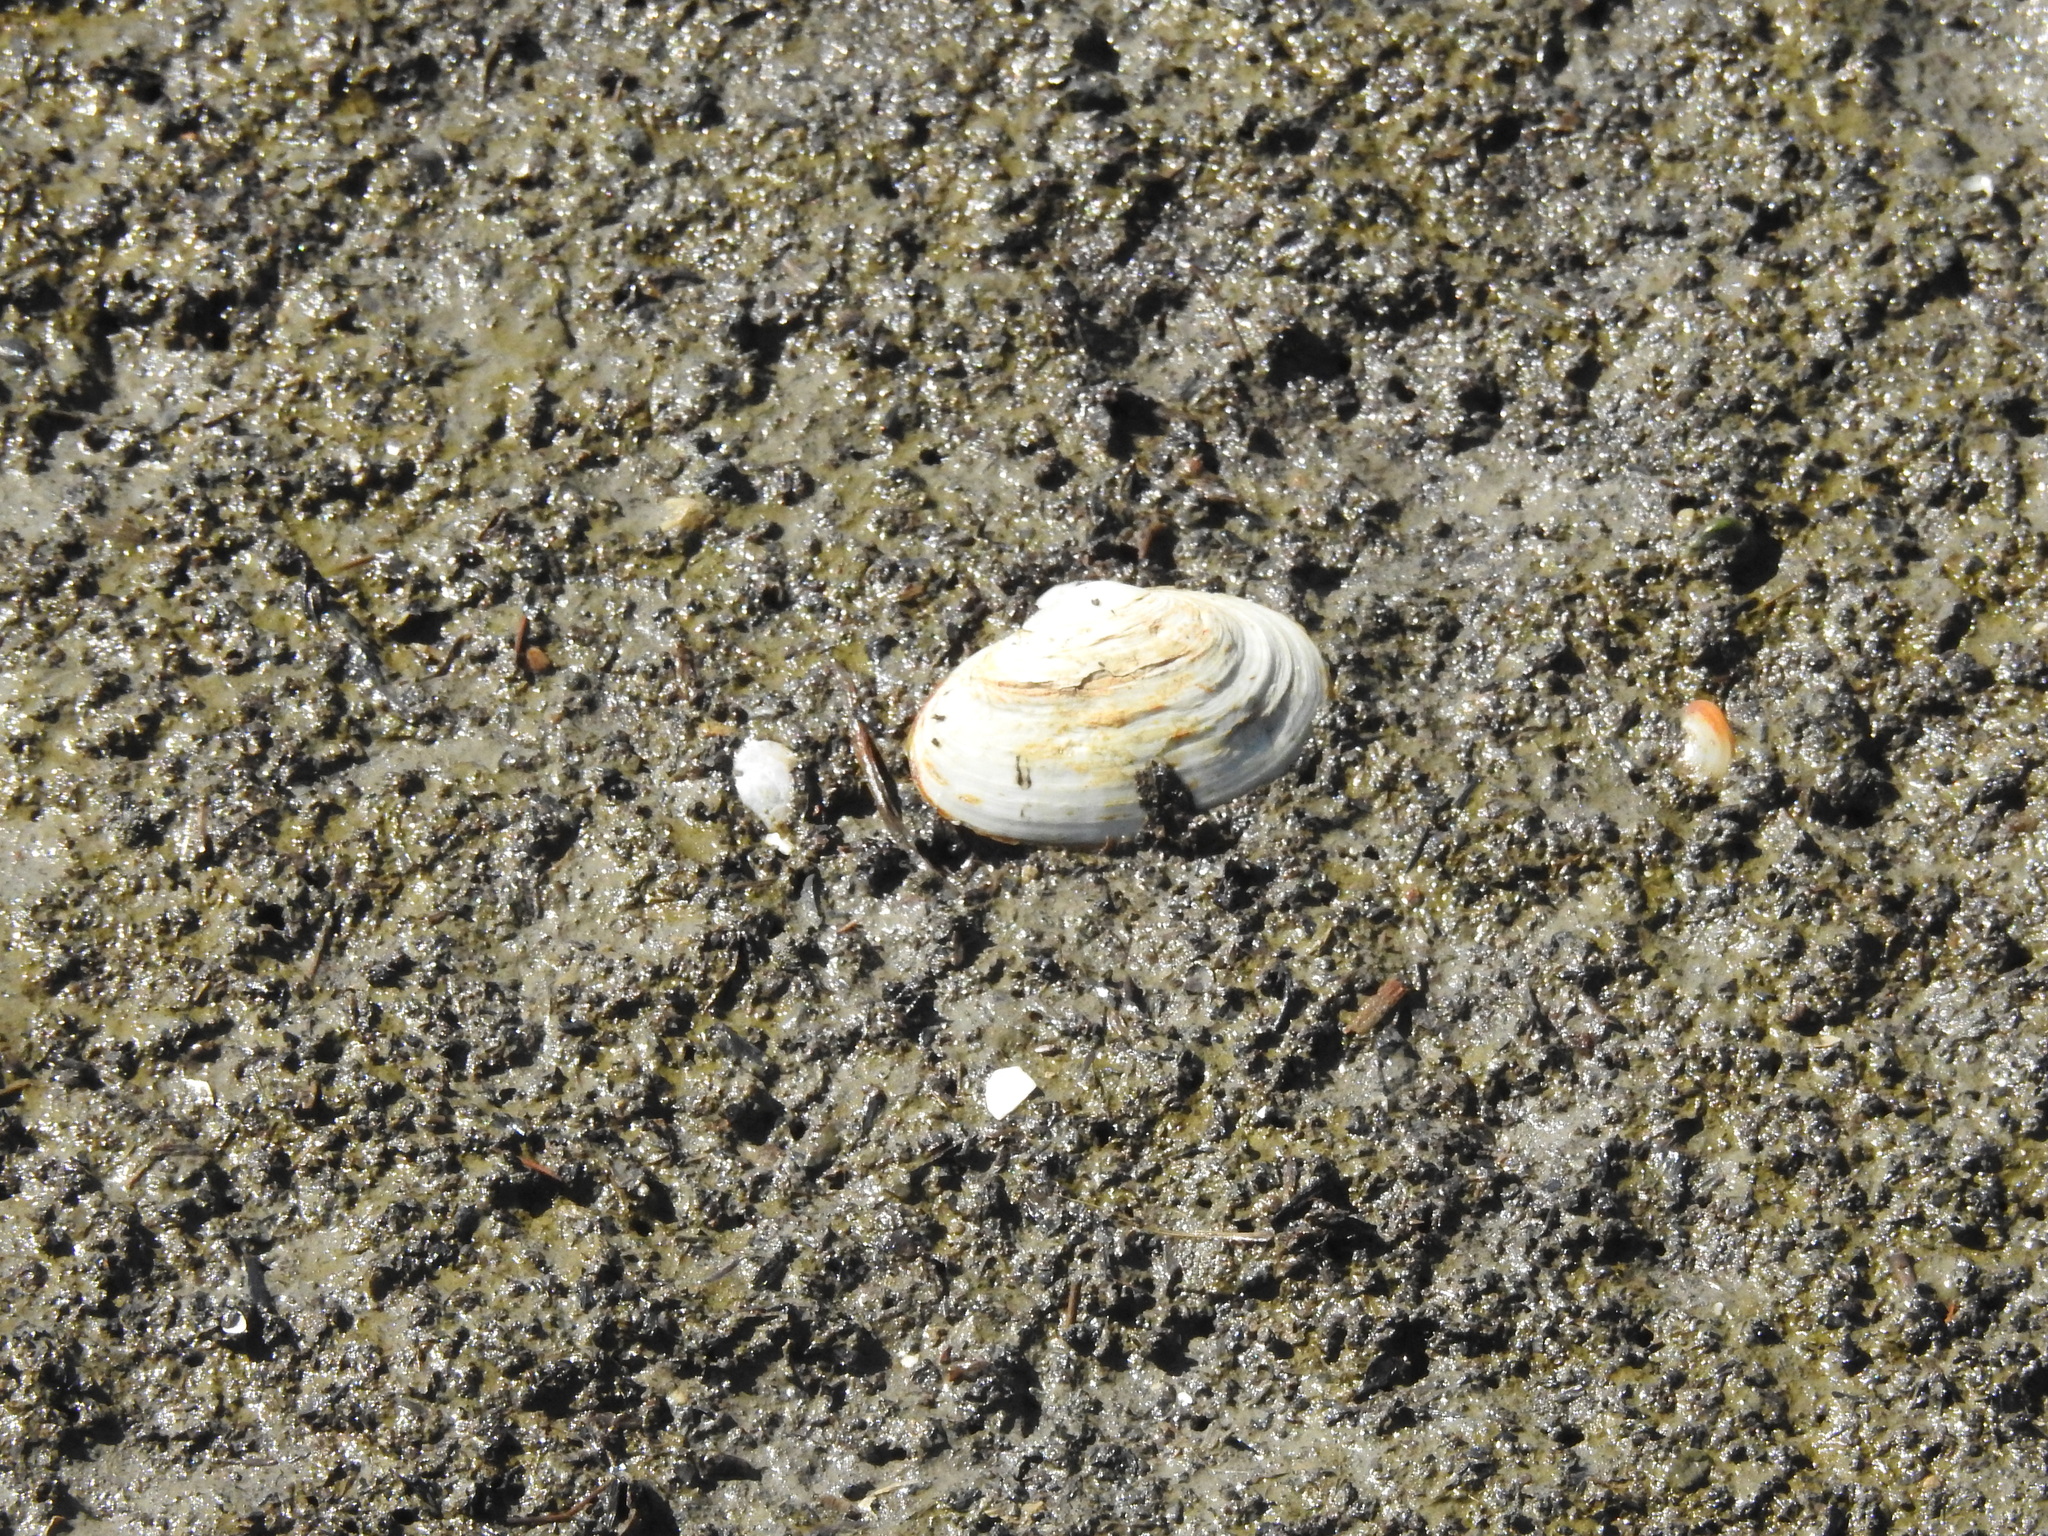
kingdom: Animalia
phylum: Mollusca
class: Bivalvia
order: Myida
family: Myidae
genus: Mya
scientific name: Mya arenaria
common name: Soft-shelled clam
